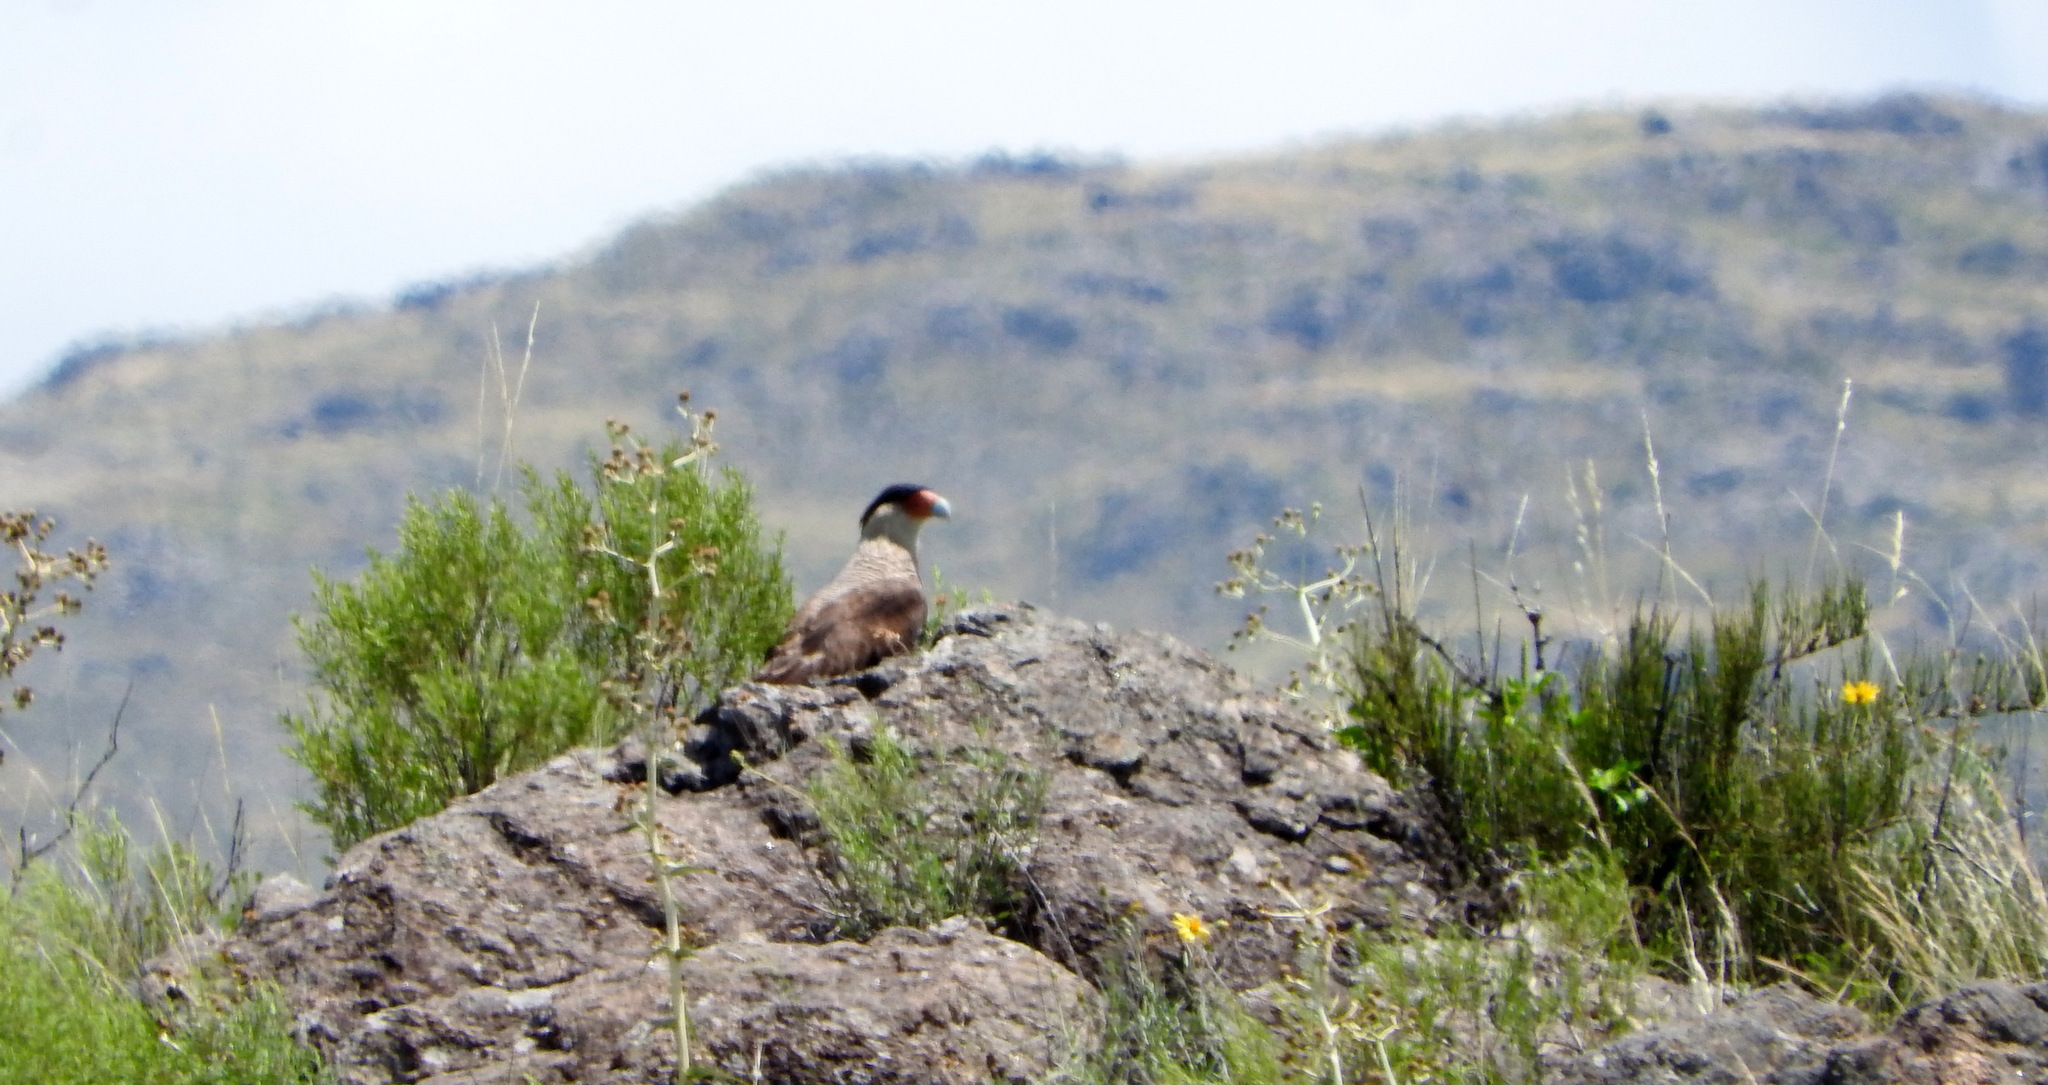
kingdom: Animalia
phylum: Chordata
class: Aves
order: Falconiformes
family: Falconidae
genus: Caracara
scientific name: Caracara plancus
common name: Southern caracara
